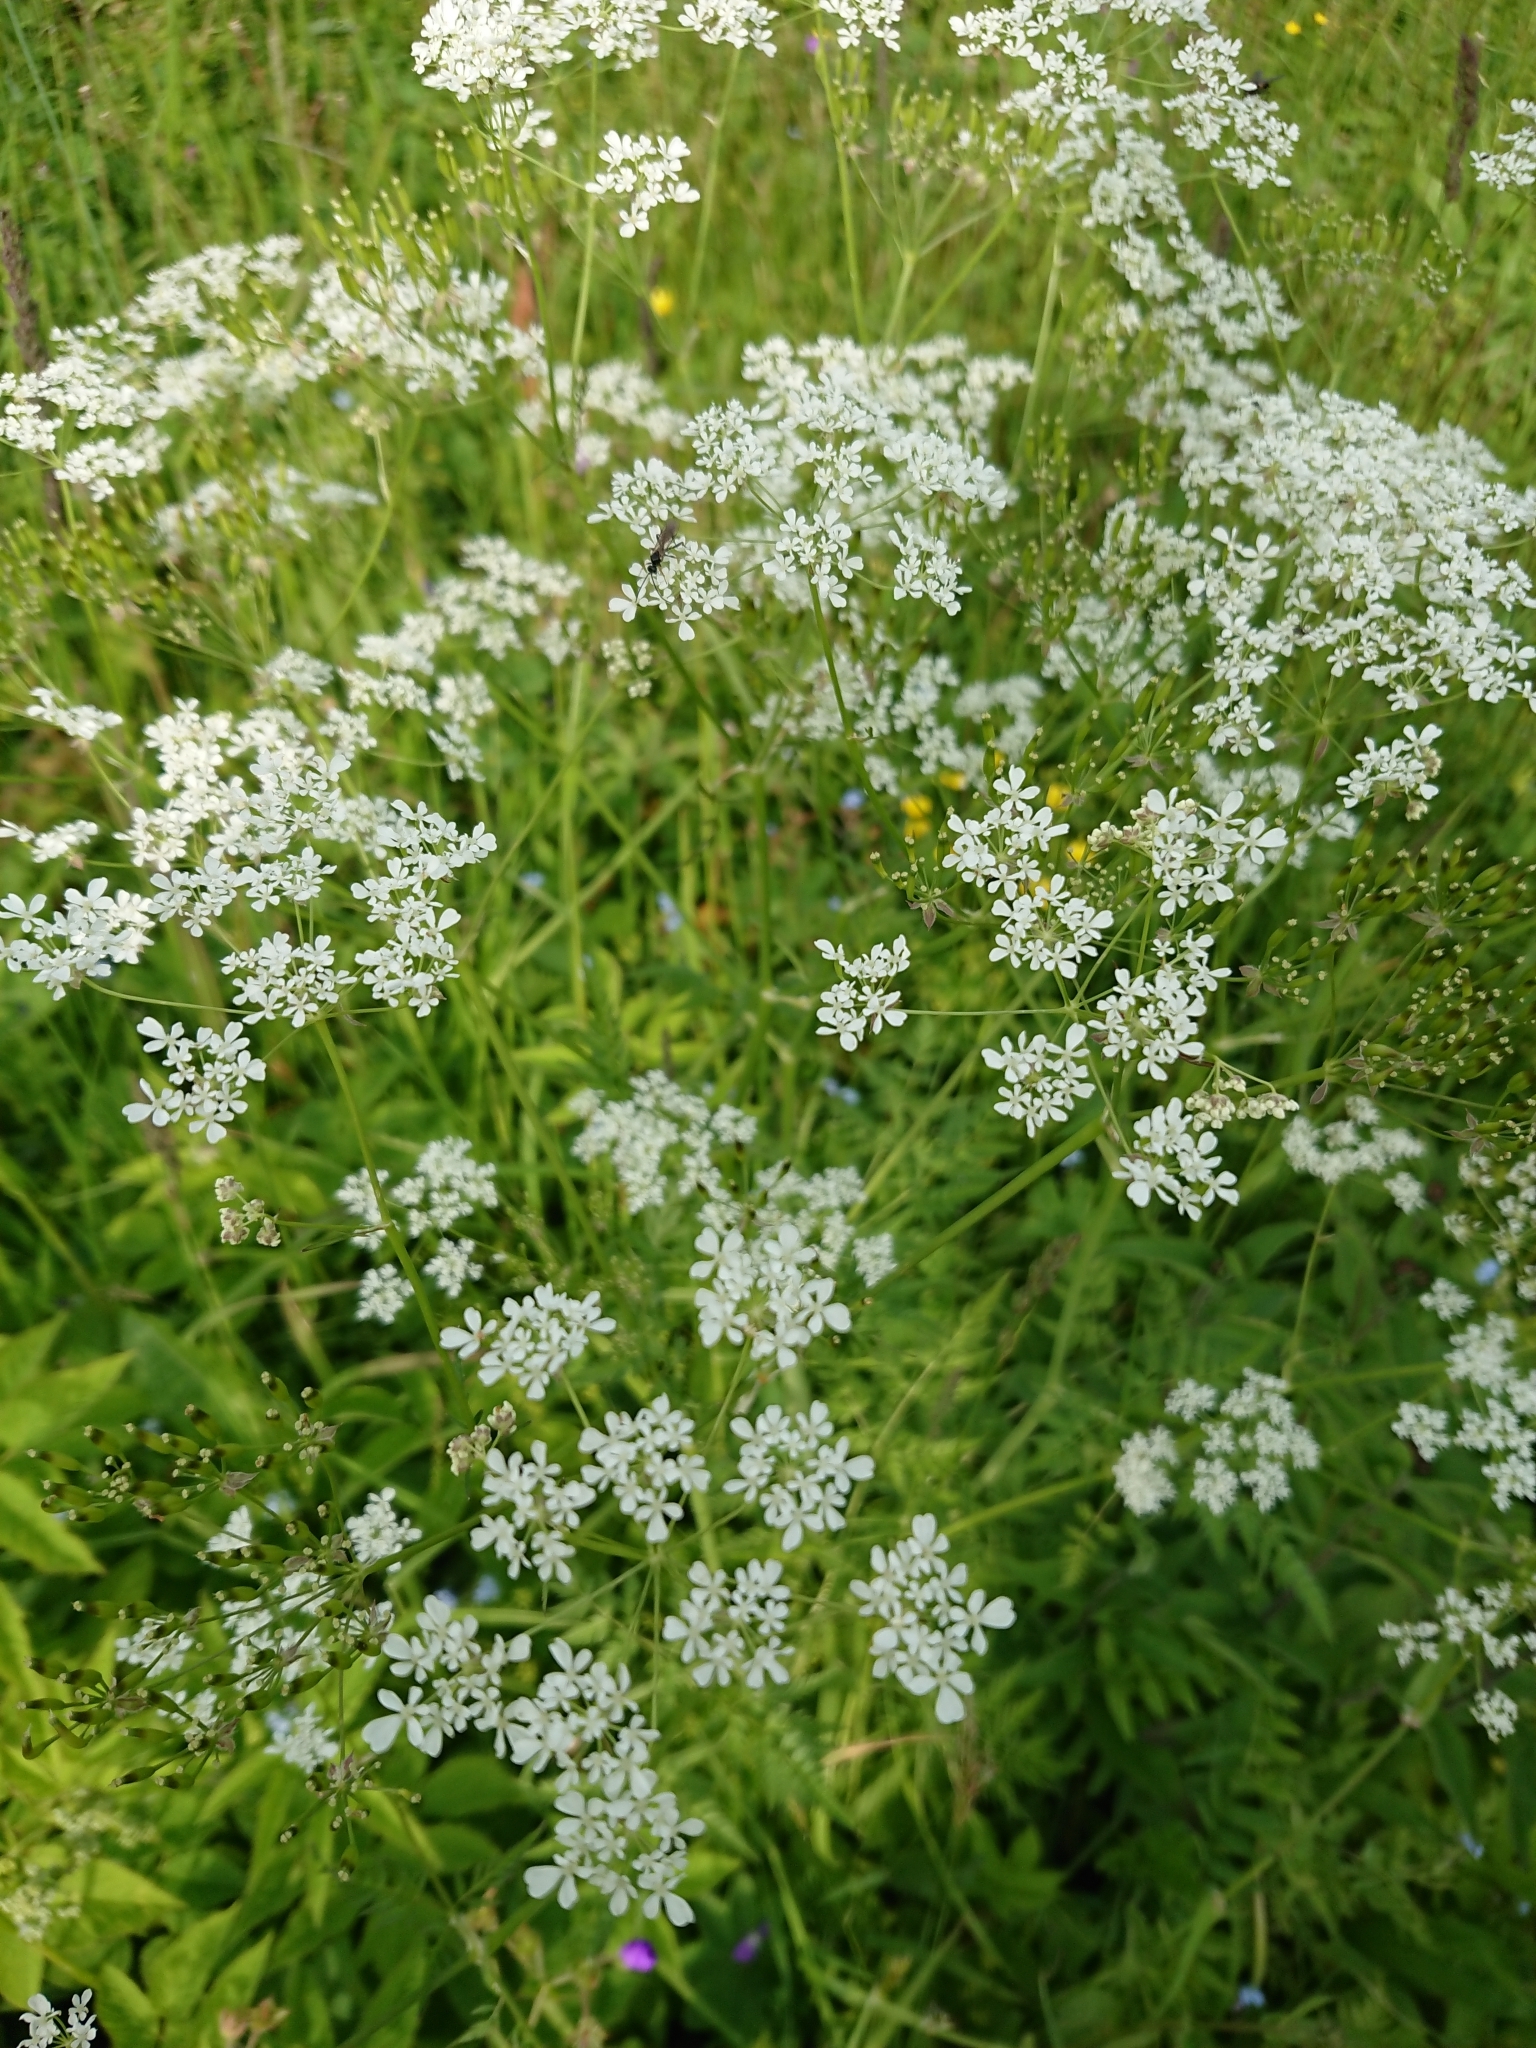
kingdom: Plantae
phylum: Tracheophyta
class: Magnoliopsida
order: Apiales
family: Apiaceae
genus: Anthriscus
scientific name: Anthriscus sylvestris
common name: Cow parsley
